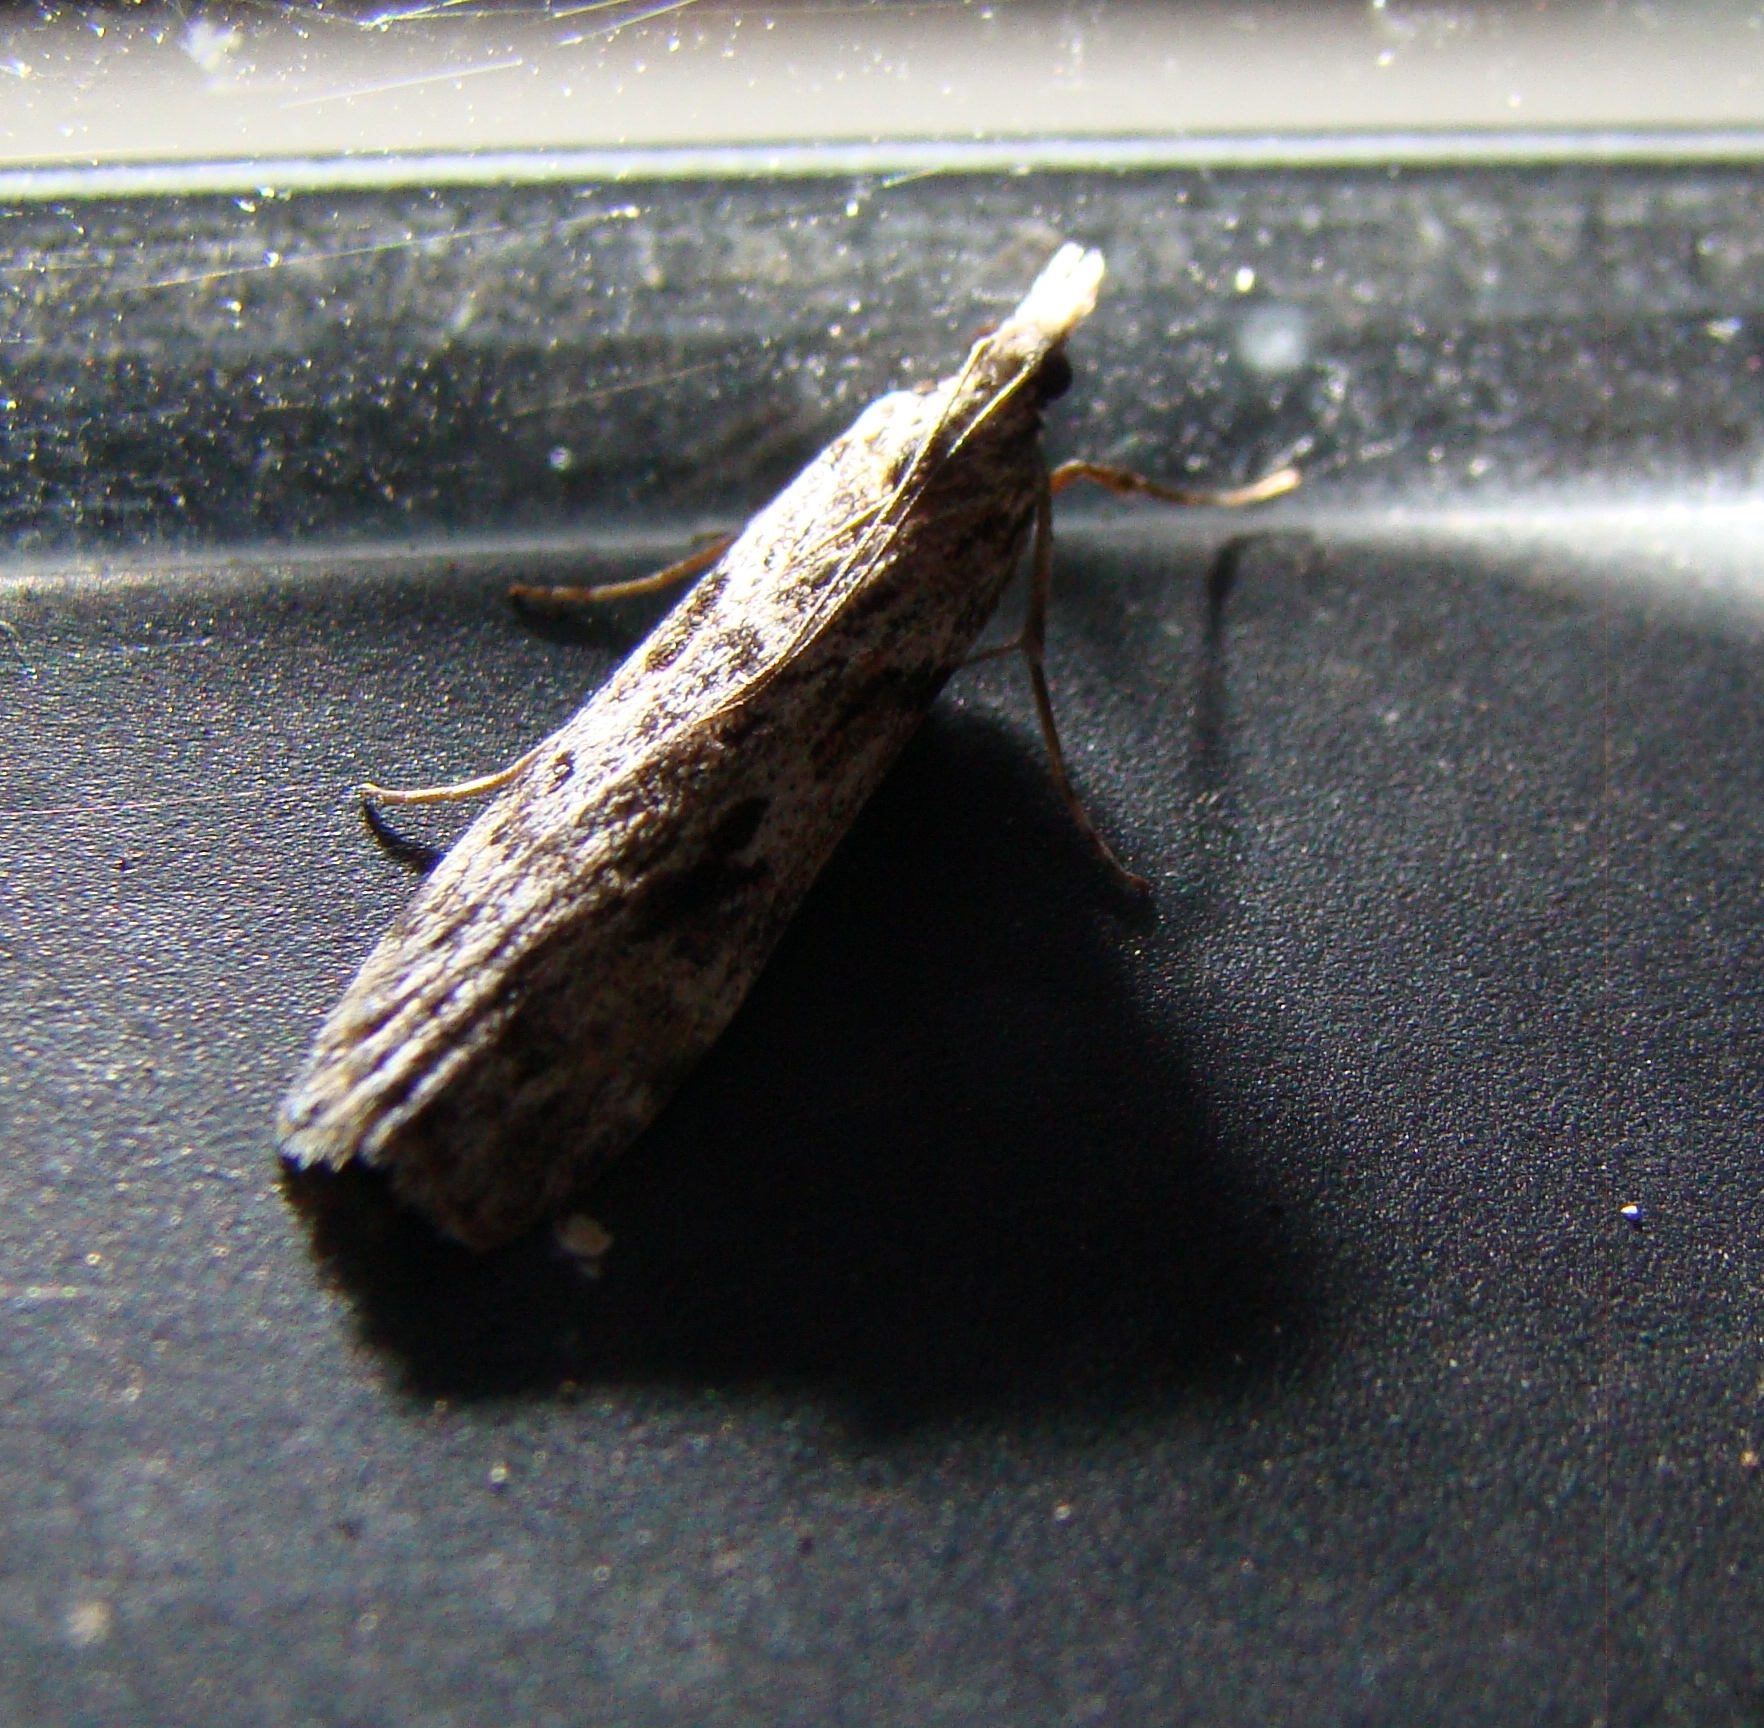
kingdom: Animalia
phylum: Arthropoda
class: Insecta
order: Lepidoptera
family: Crambidae
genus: Scoparia
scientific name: Scoparia halopis
